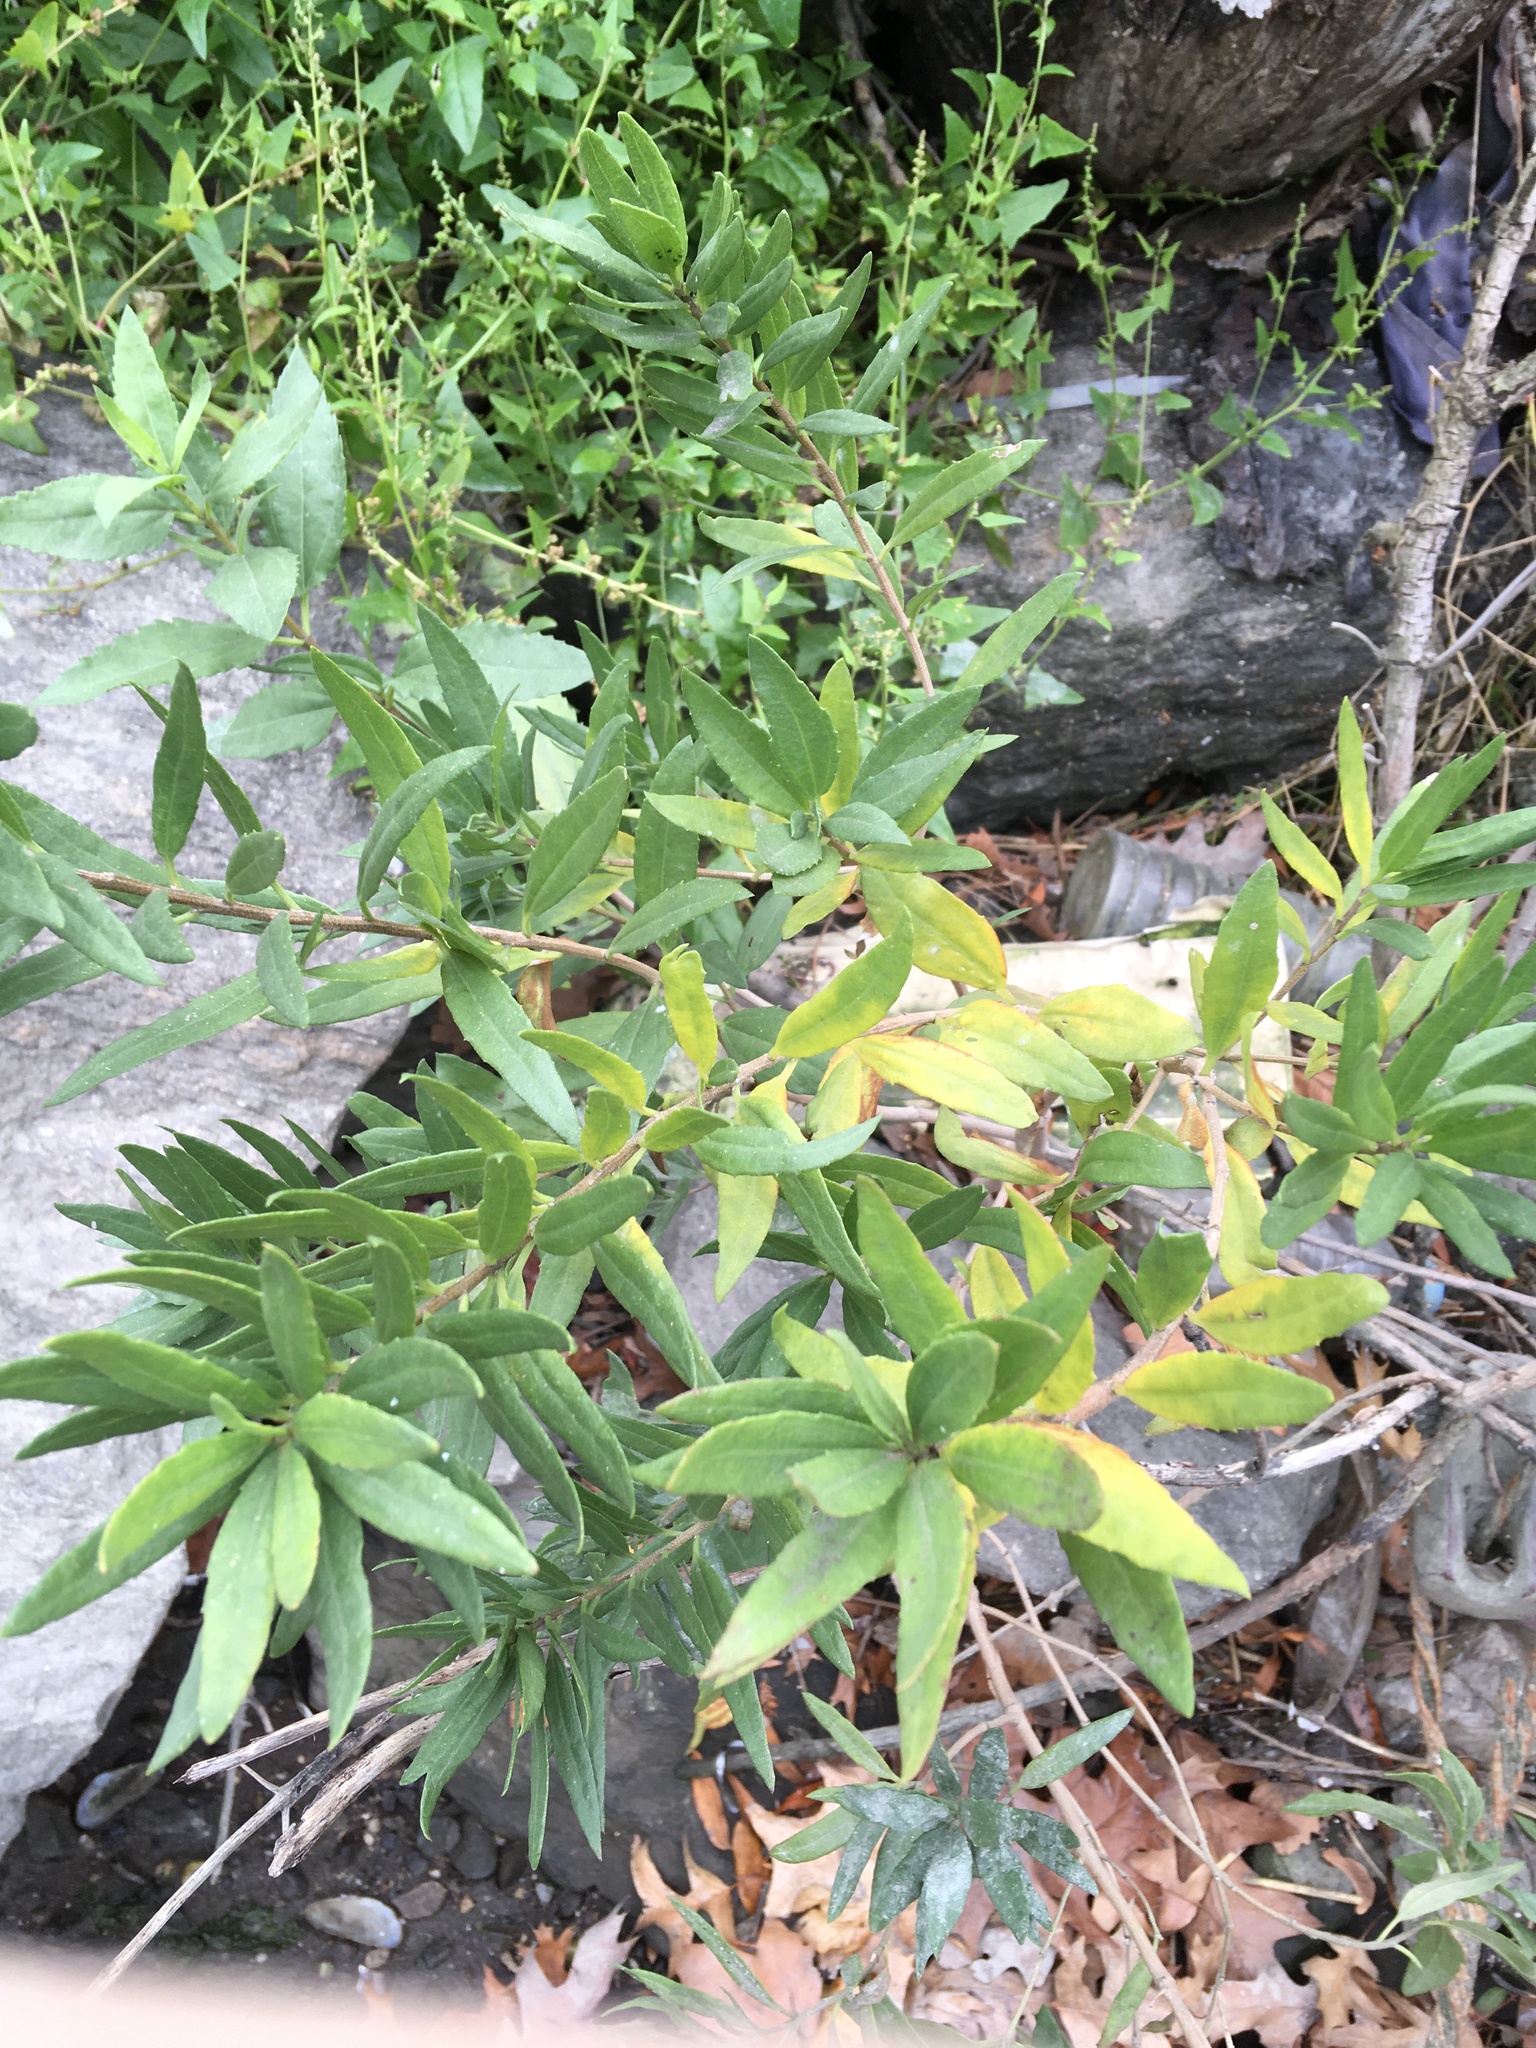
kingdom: Plantae
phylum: Tracheophyta
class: Magnoliopsida
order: Asterales
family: Asteraceae
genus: Iva
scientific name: Iva frutescens
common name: Big-leaved marsh-elder
